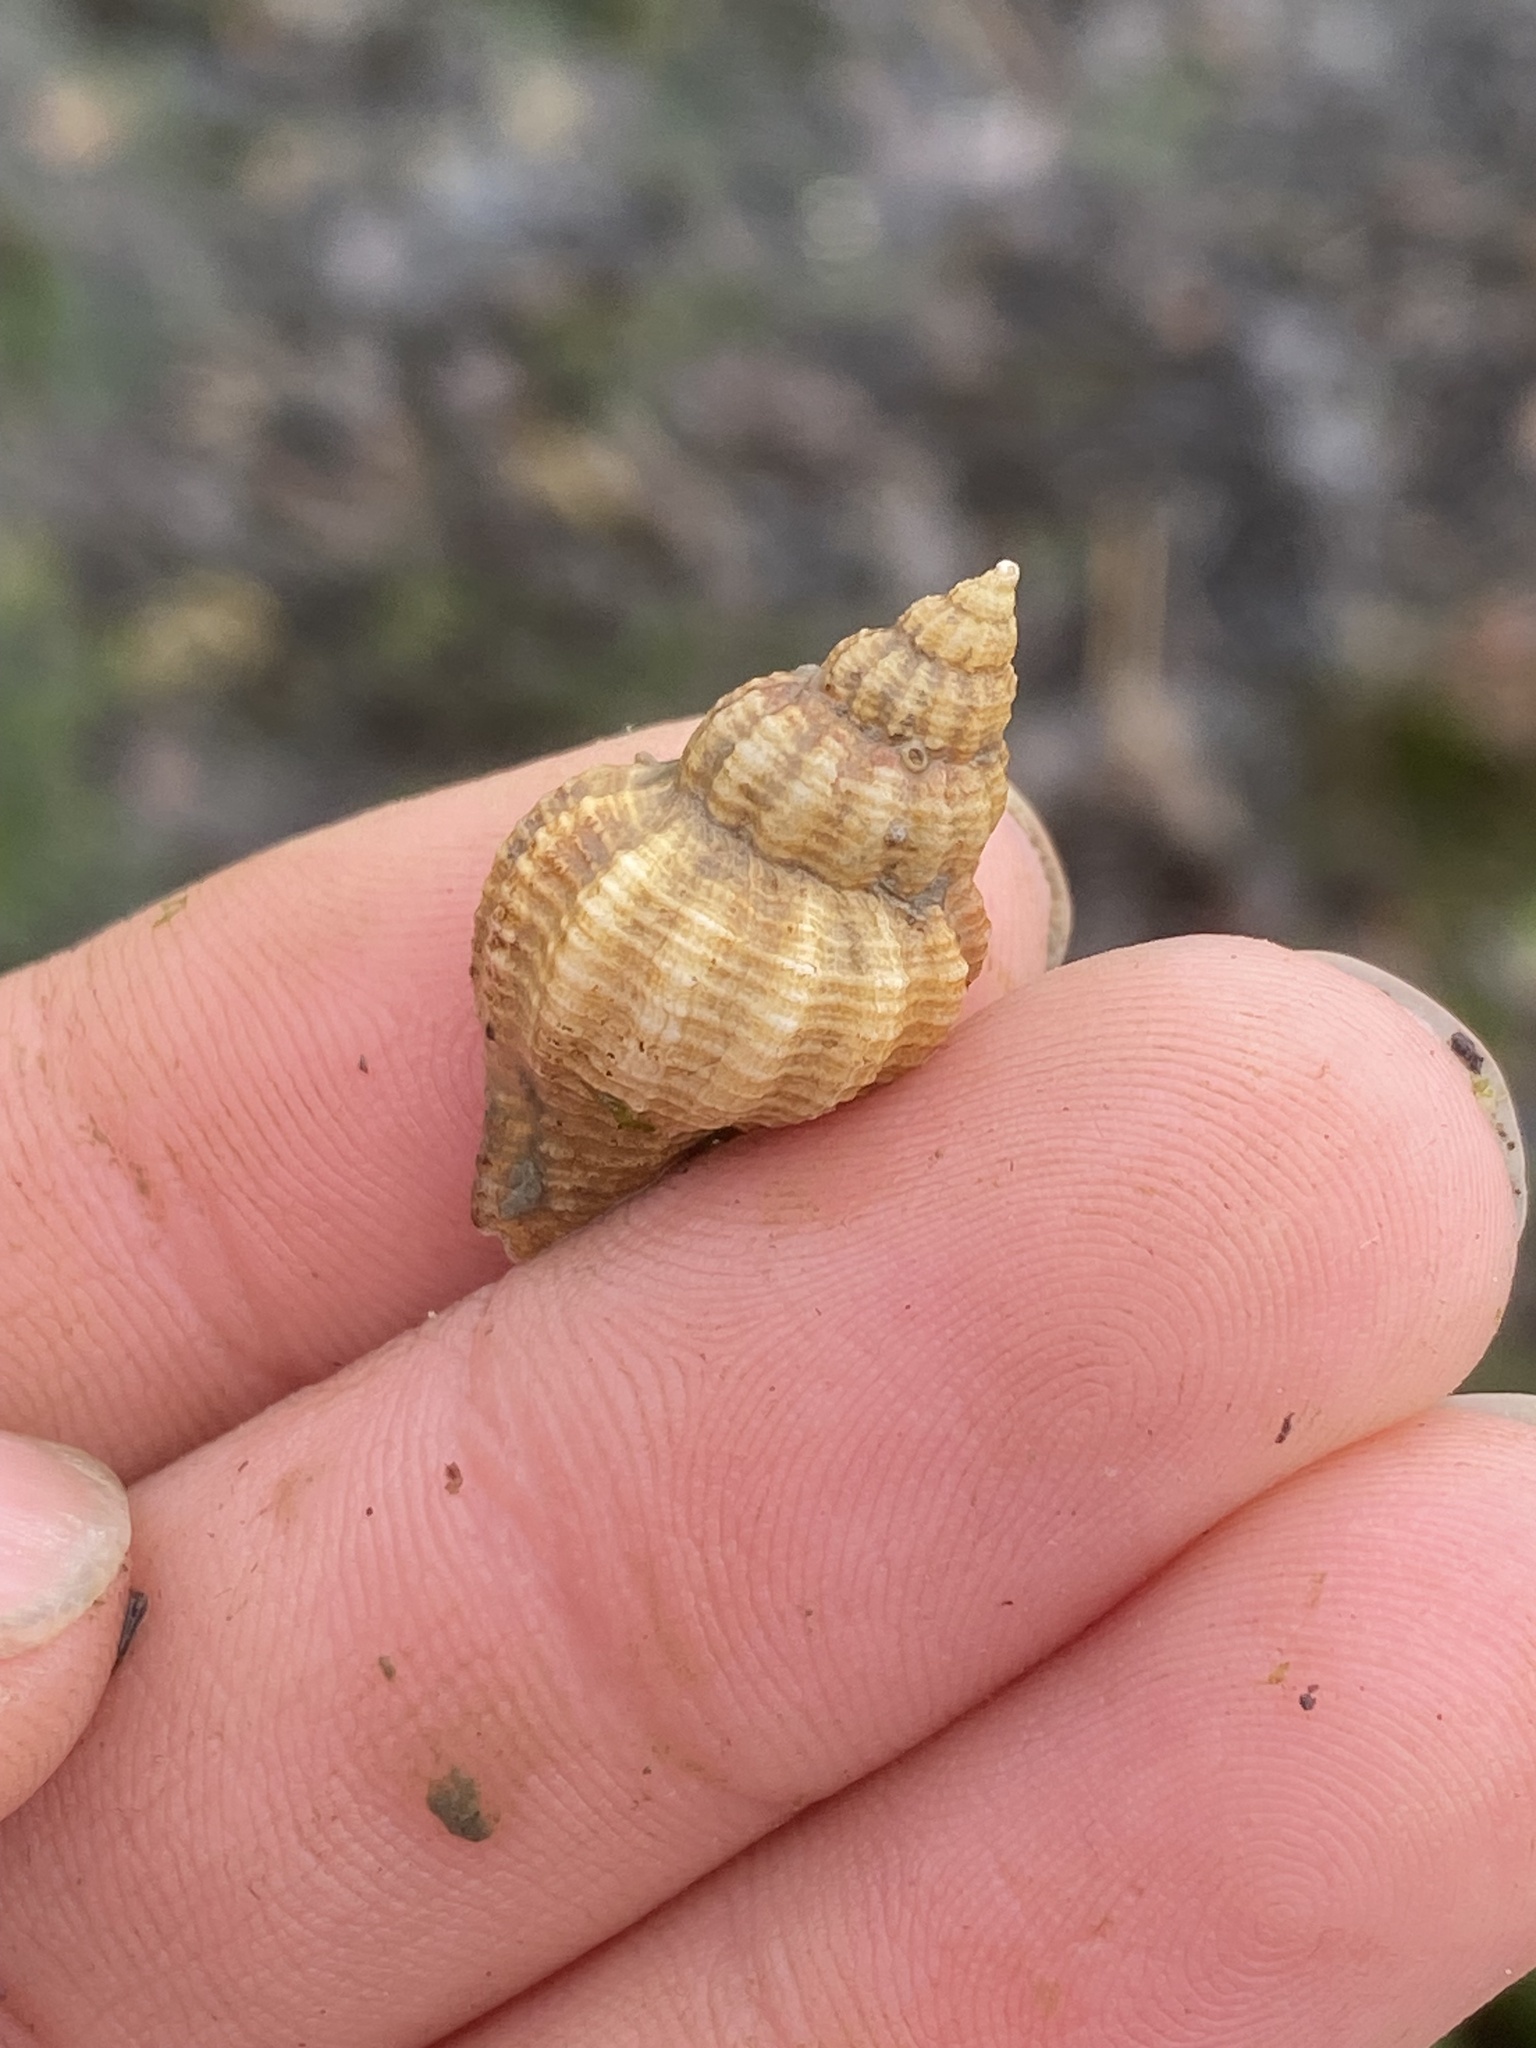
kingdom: Animalia
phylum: Mollusca
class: Gastropoda
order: Neogastropoda
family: Muricidae
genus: Urosalpinx
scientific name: Urosalpinx cinerea
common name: American sting winkle
